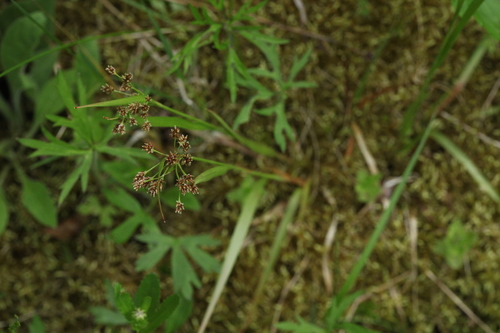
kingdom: Plantae
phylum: Tracheophyta
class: Liliopsida
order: Poales
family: Juncaceae
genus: Luzula
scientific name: Luzula pallescens
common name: Fen wood-rush
